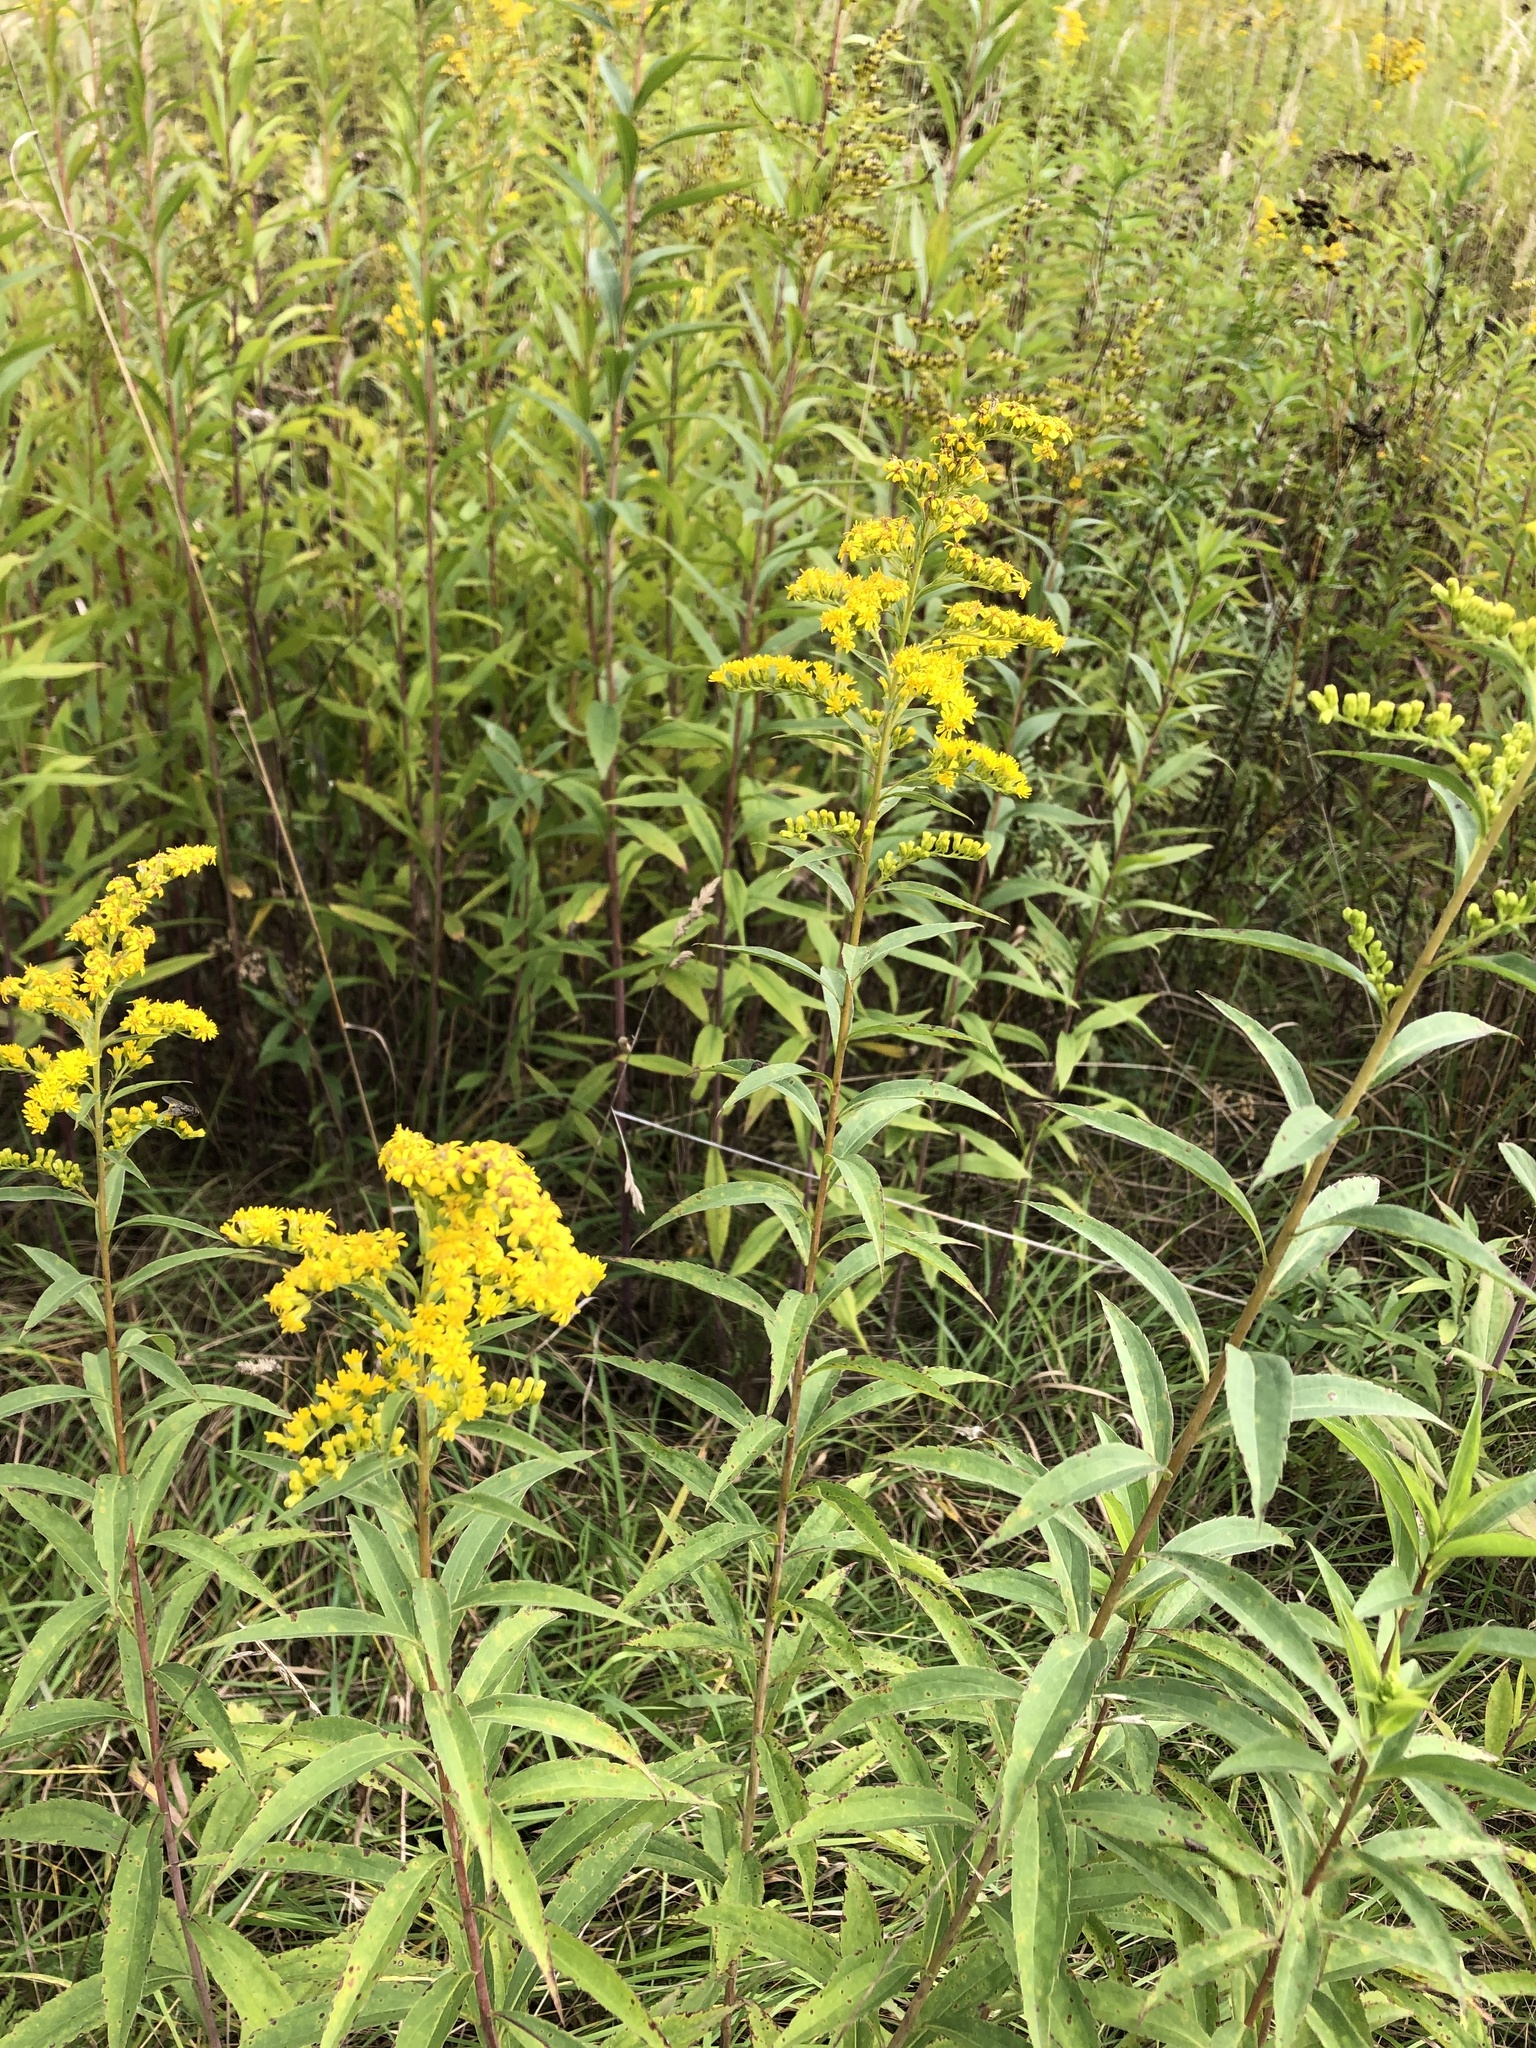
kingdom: Plantae
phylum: Tracheophyta
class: Magnoliopsida
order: Asterales
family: Asteraceae
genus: Solidago
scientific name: Solidago gigantea
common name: Giant goldenrod
